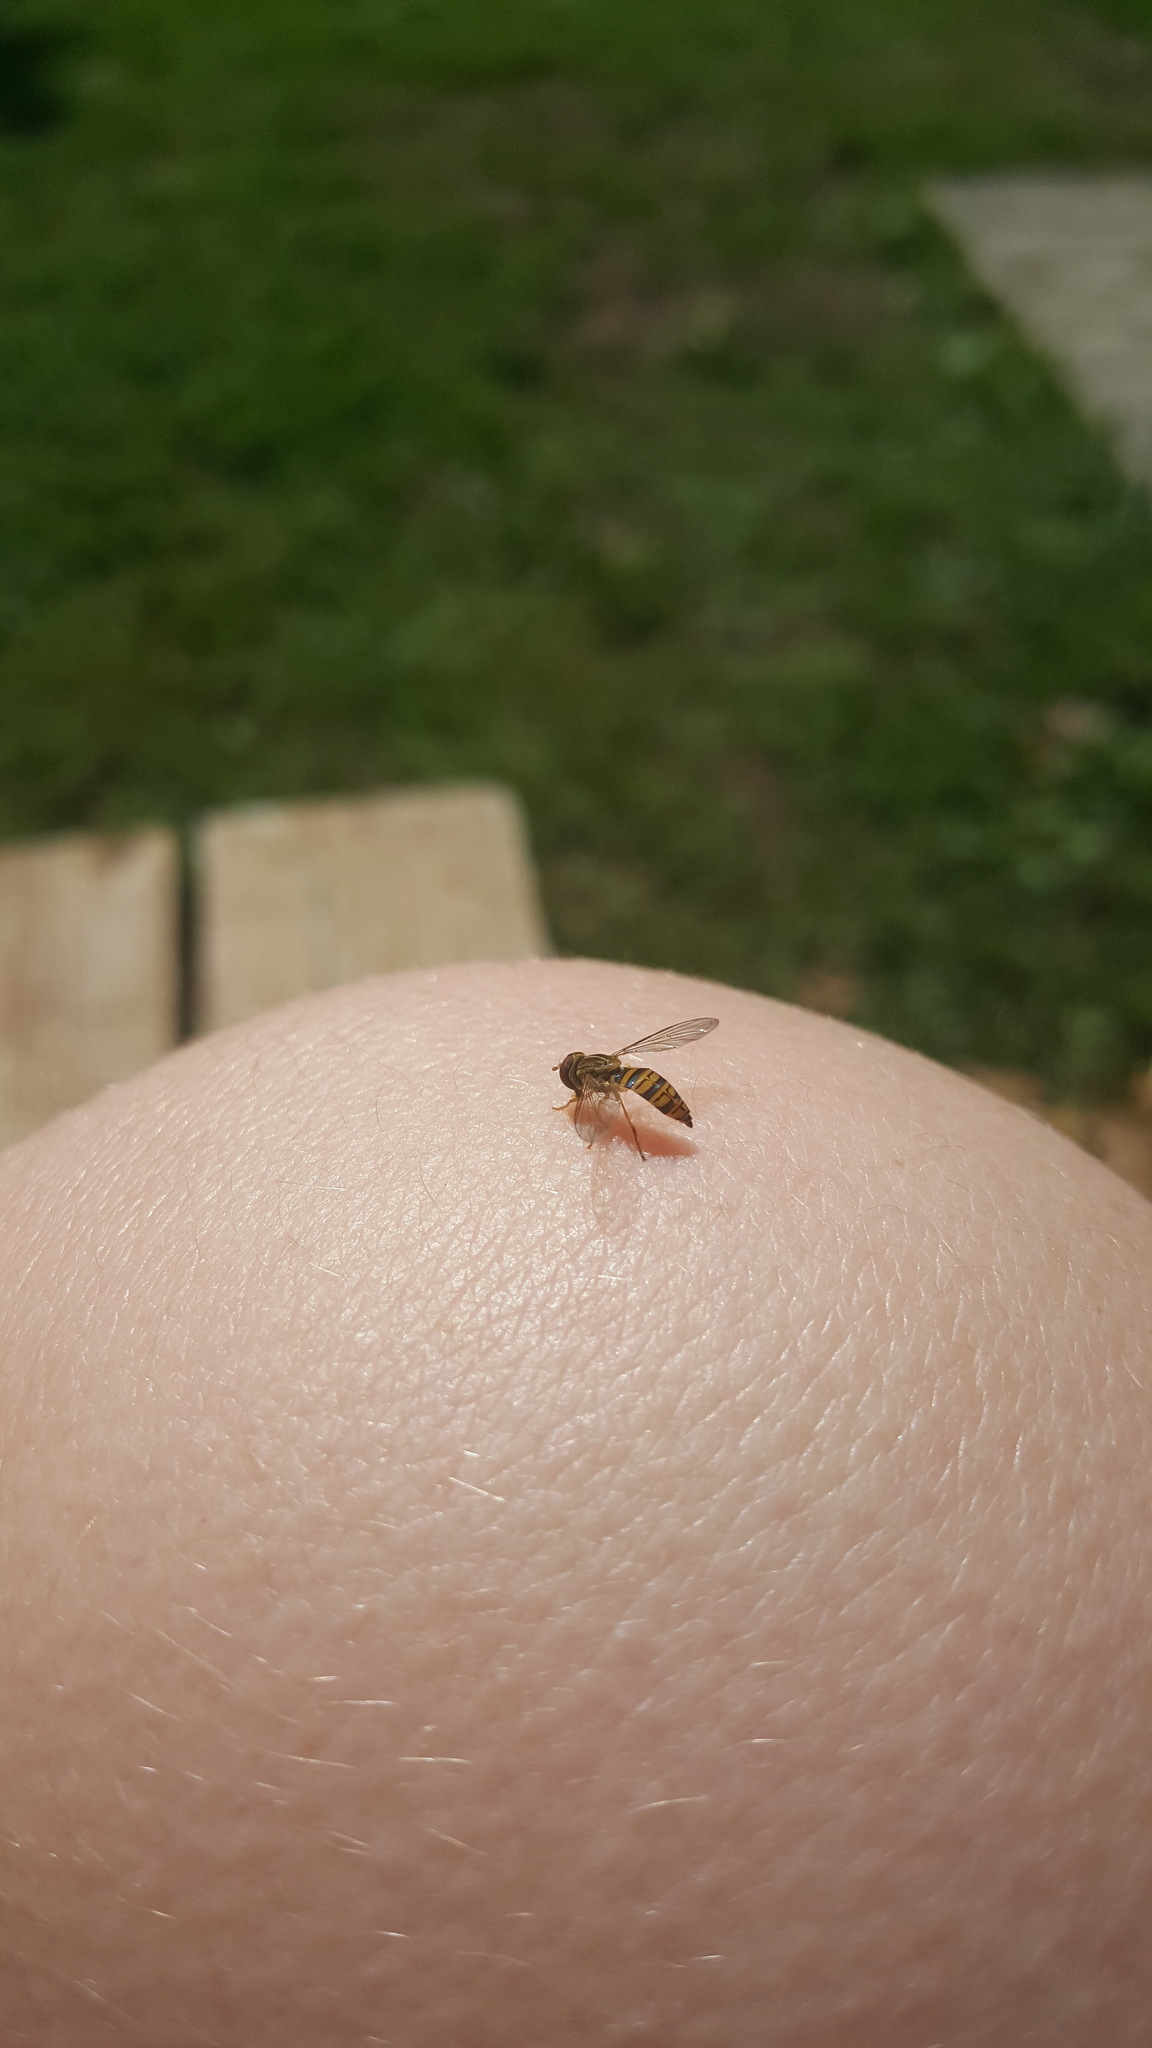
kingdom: Animalia
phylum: Arthropoda
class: Insecta
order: Diptera
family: Syrphidae
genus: Toxomerus
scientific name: Toxomerus politus
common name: Maize calligrapher
